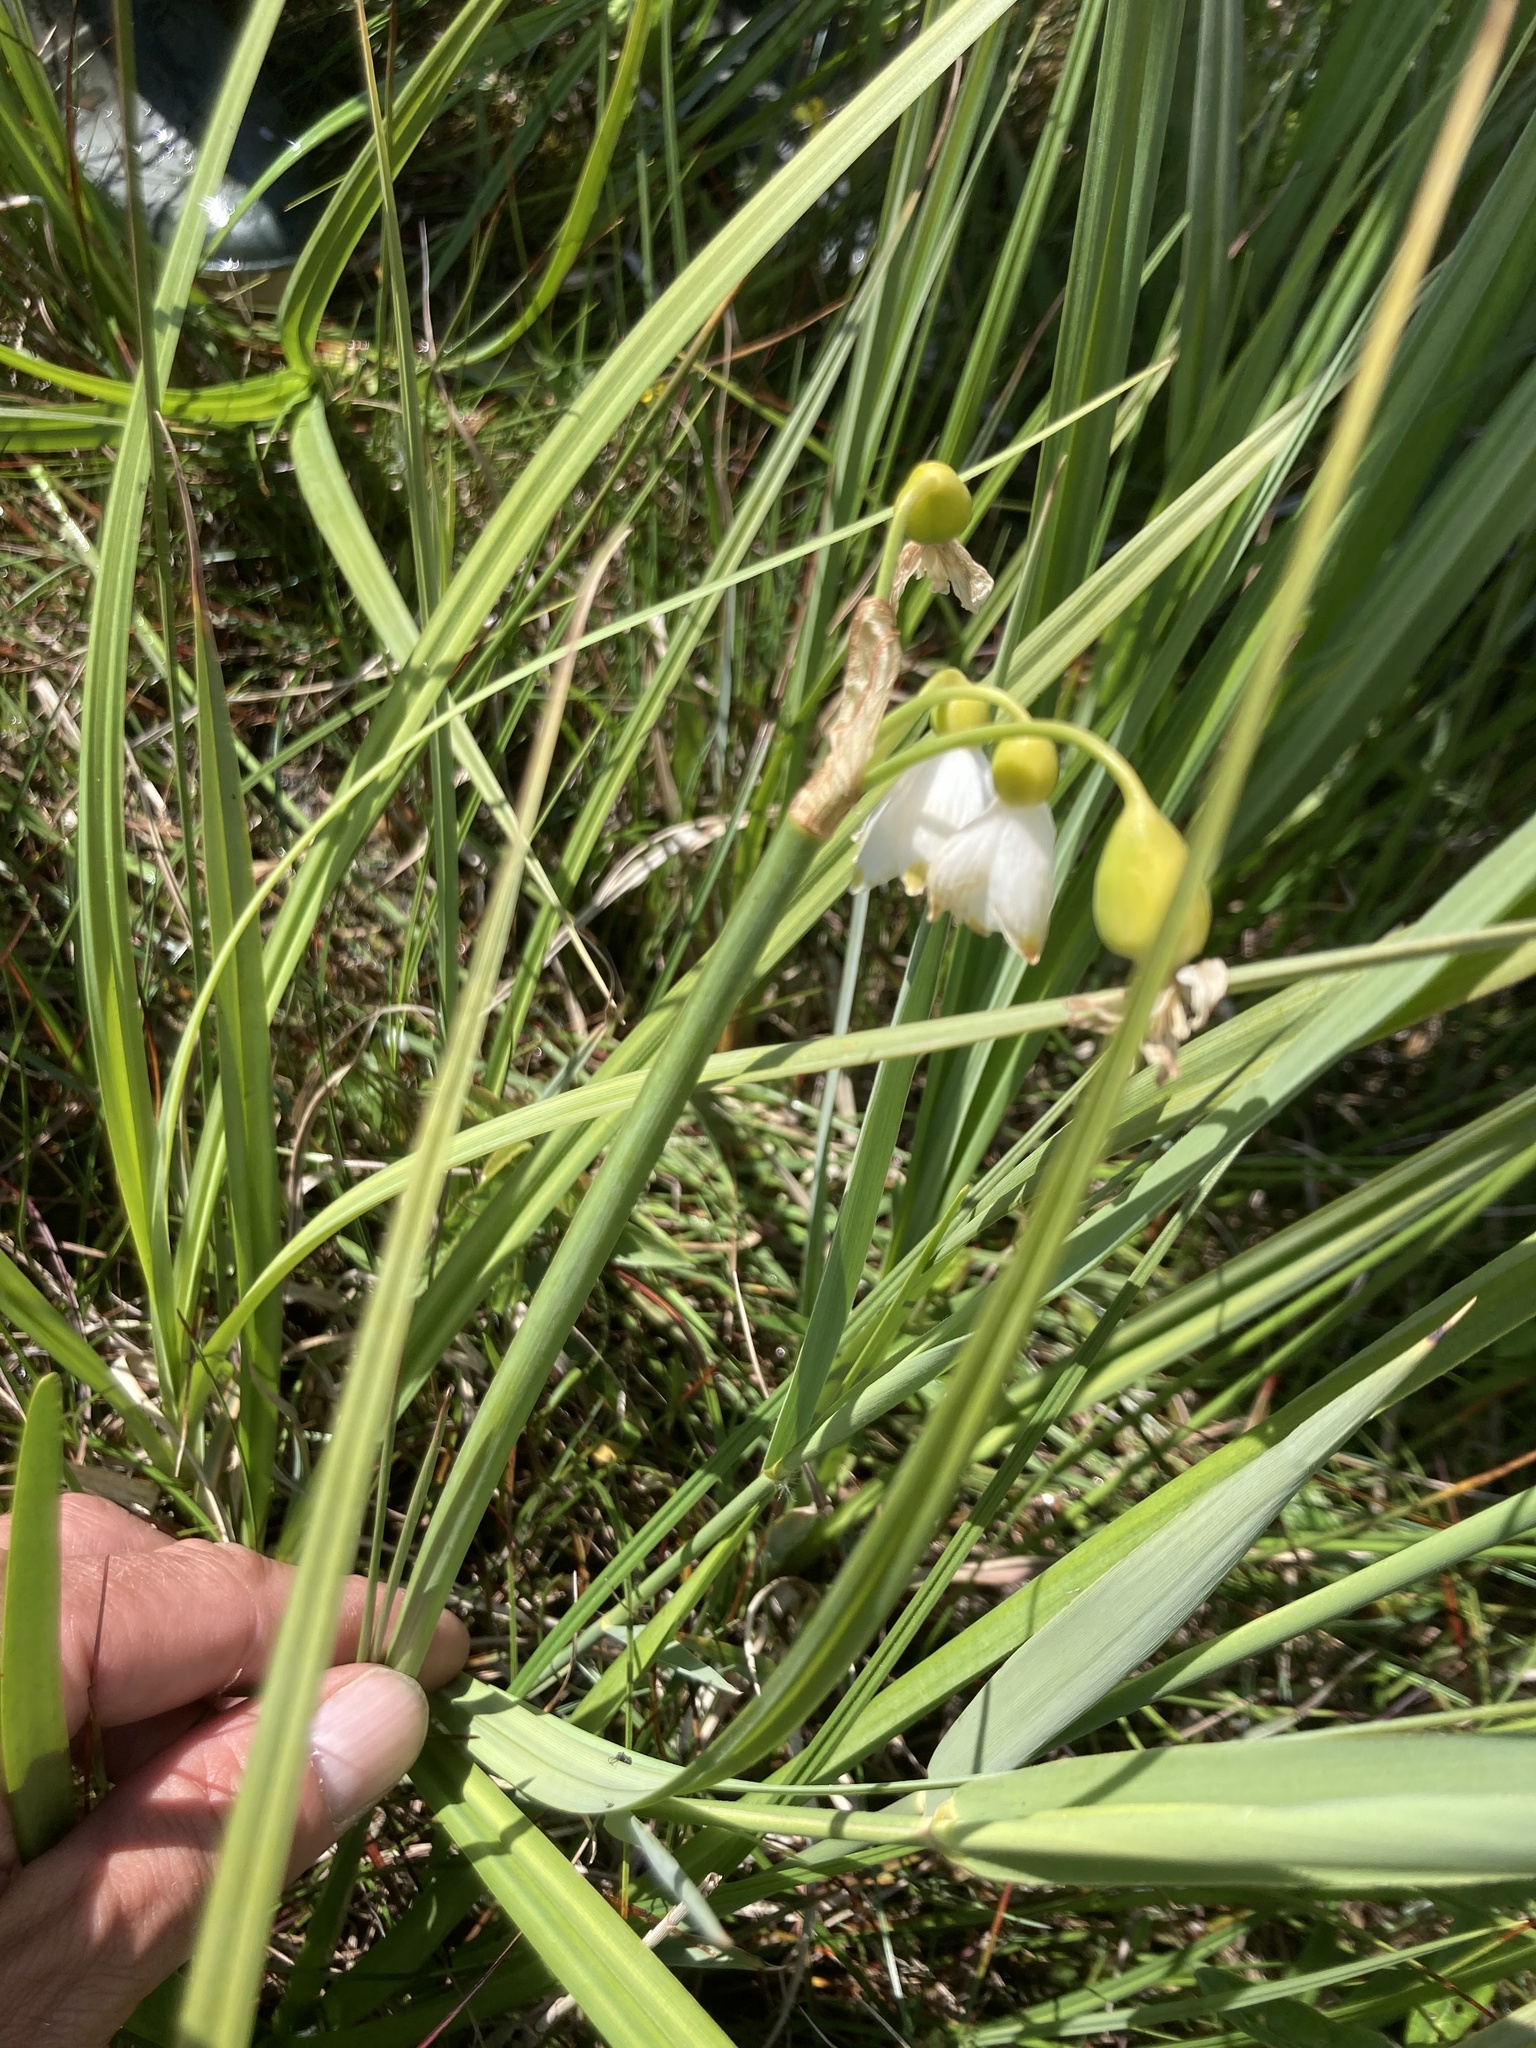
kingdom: Plantae
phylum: Tracheophyta
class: Liliopsida
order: Asparagales
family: Amaryllidaceae
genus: Leucojum
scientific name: Leucojum aestivum
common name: Summer snowflake
